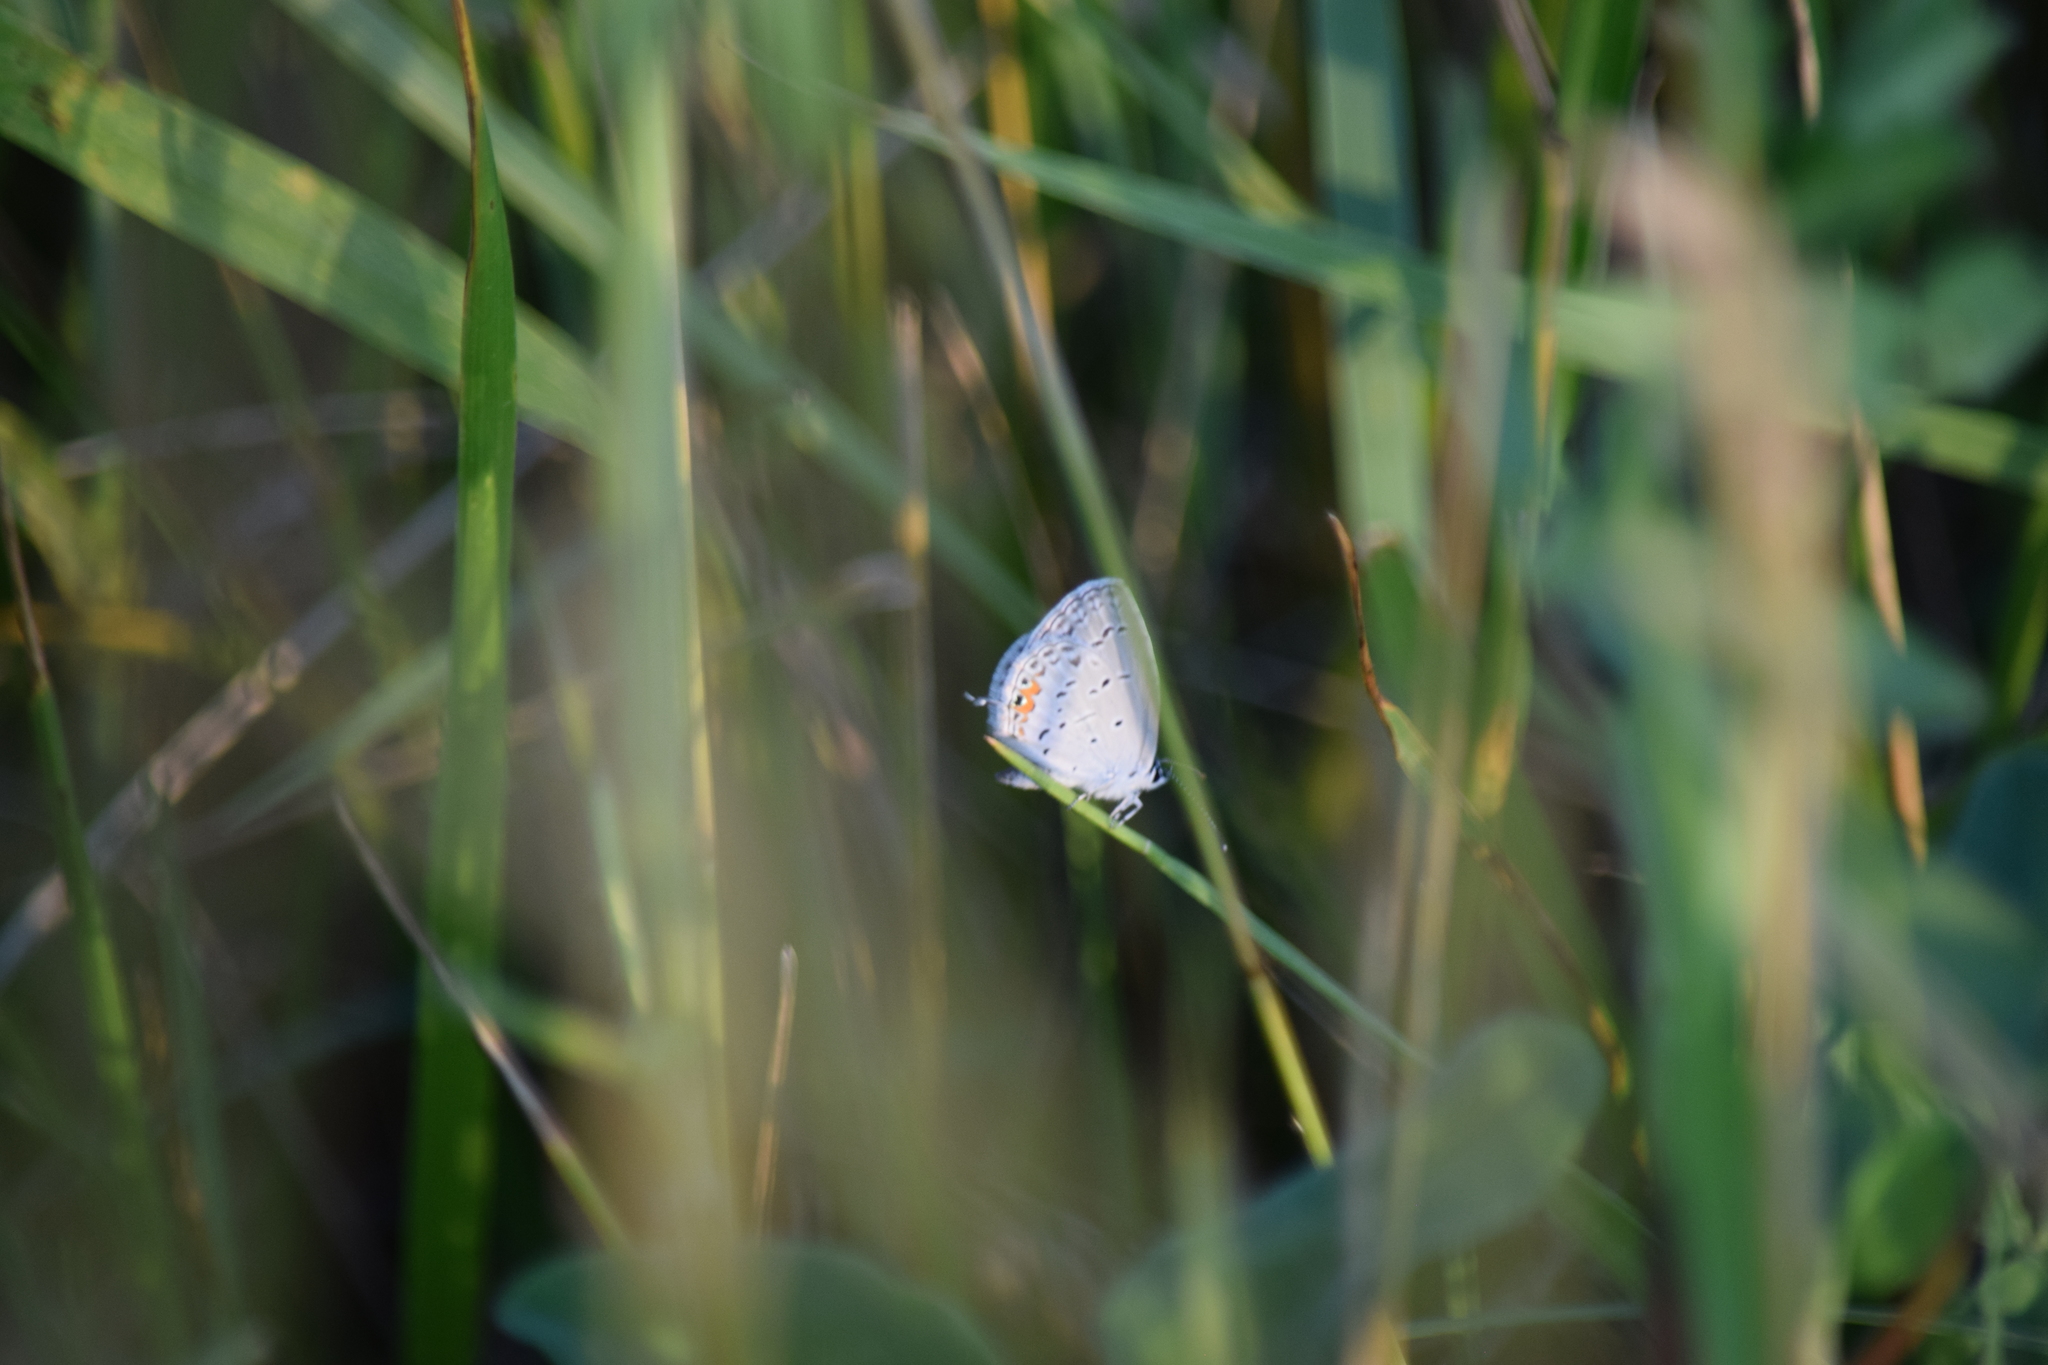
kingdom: Animalia
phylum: Arthropoda
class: Insecta
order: Lepidoptera
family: Lycaenidae
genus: Elkalyce
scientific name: Elkalyce comyntas
